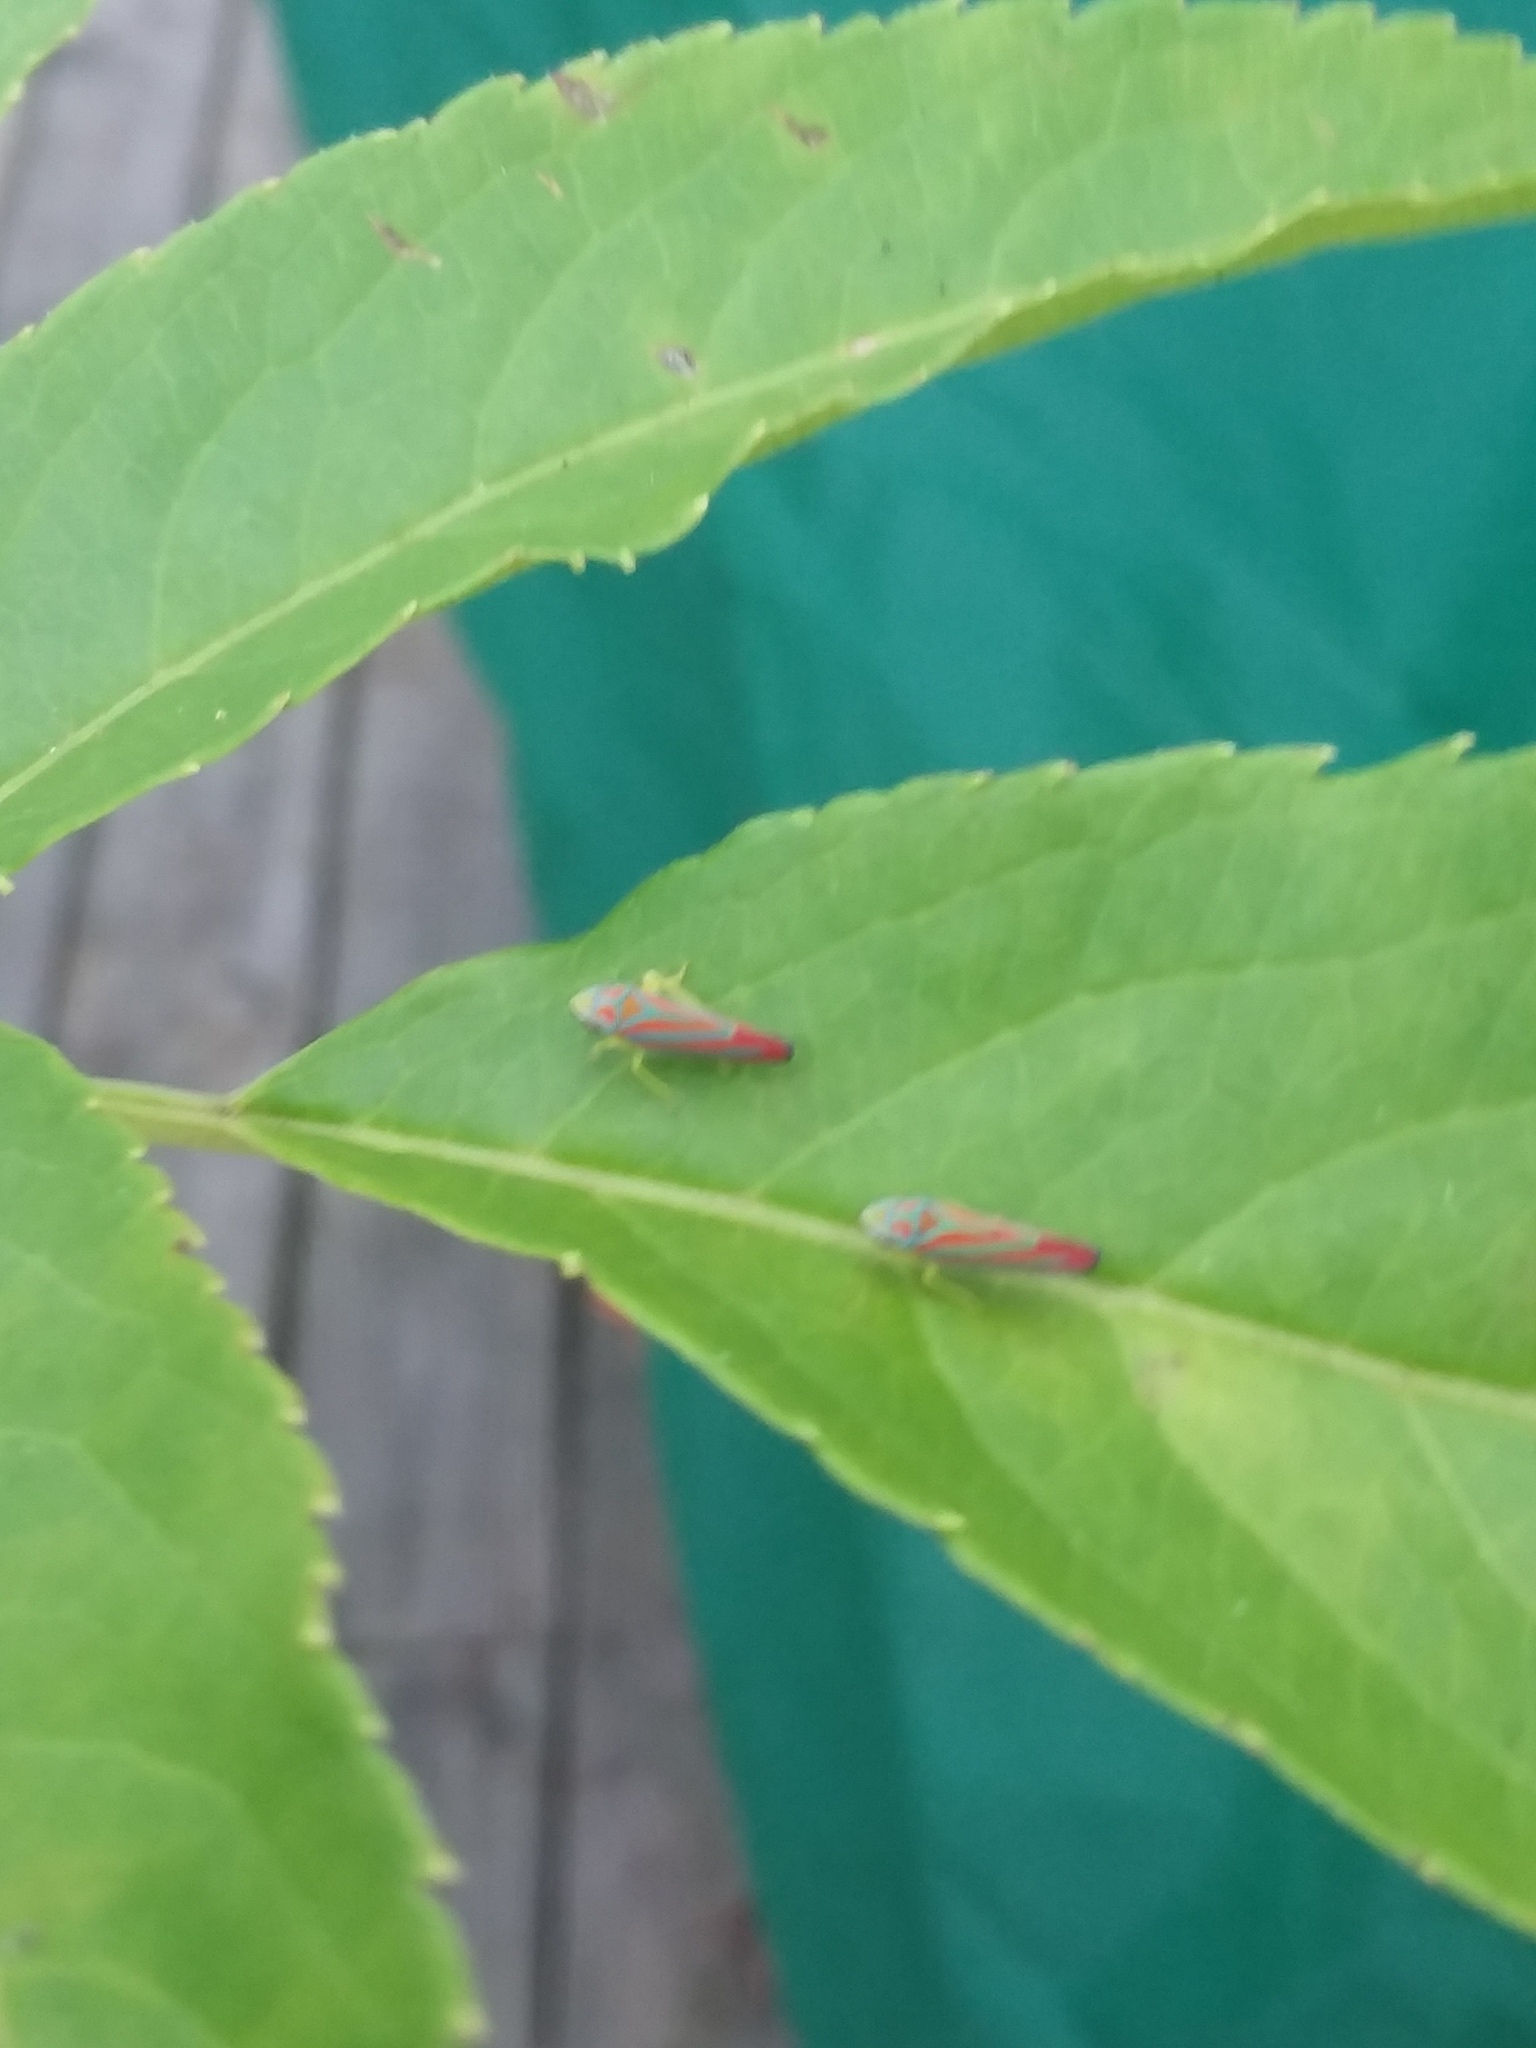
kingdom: Animalia
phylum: Arthropoda
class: Insecta
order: Hemiptera
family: Cicadellidae
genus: Graphocephala
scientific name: Graphocephala coccinea
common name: Candy-striped leafhopper
